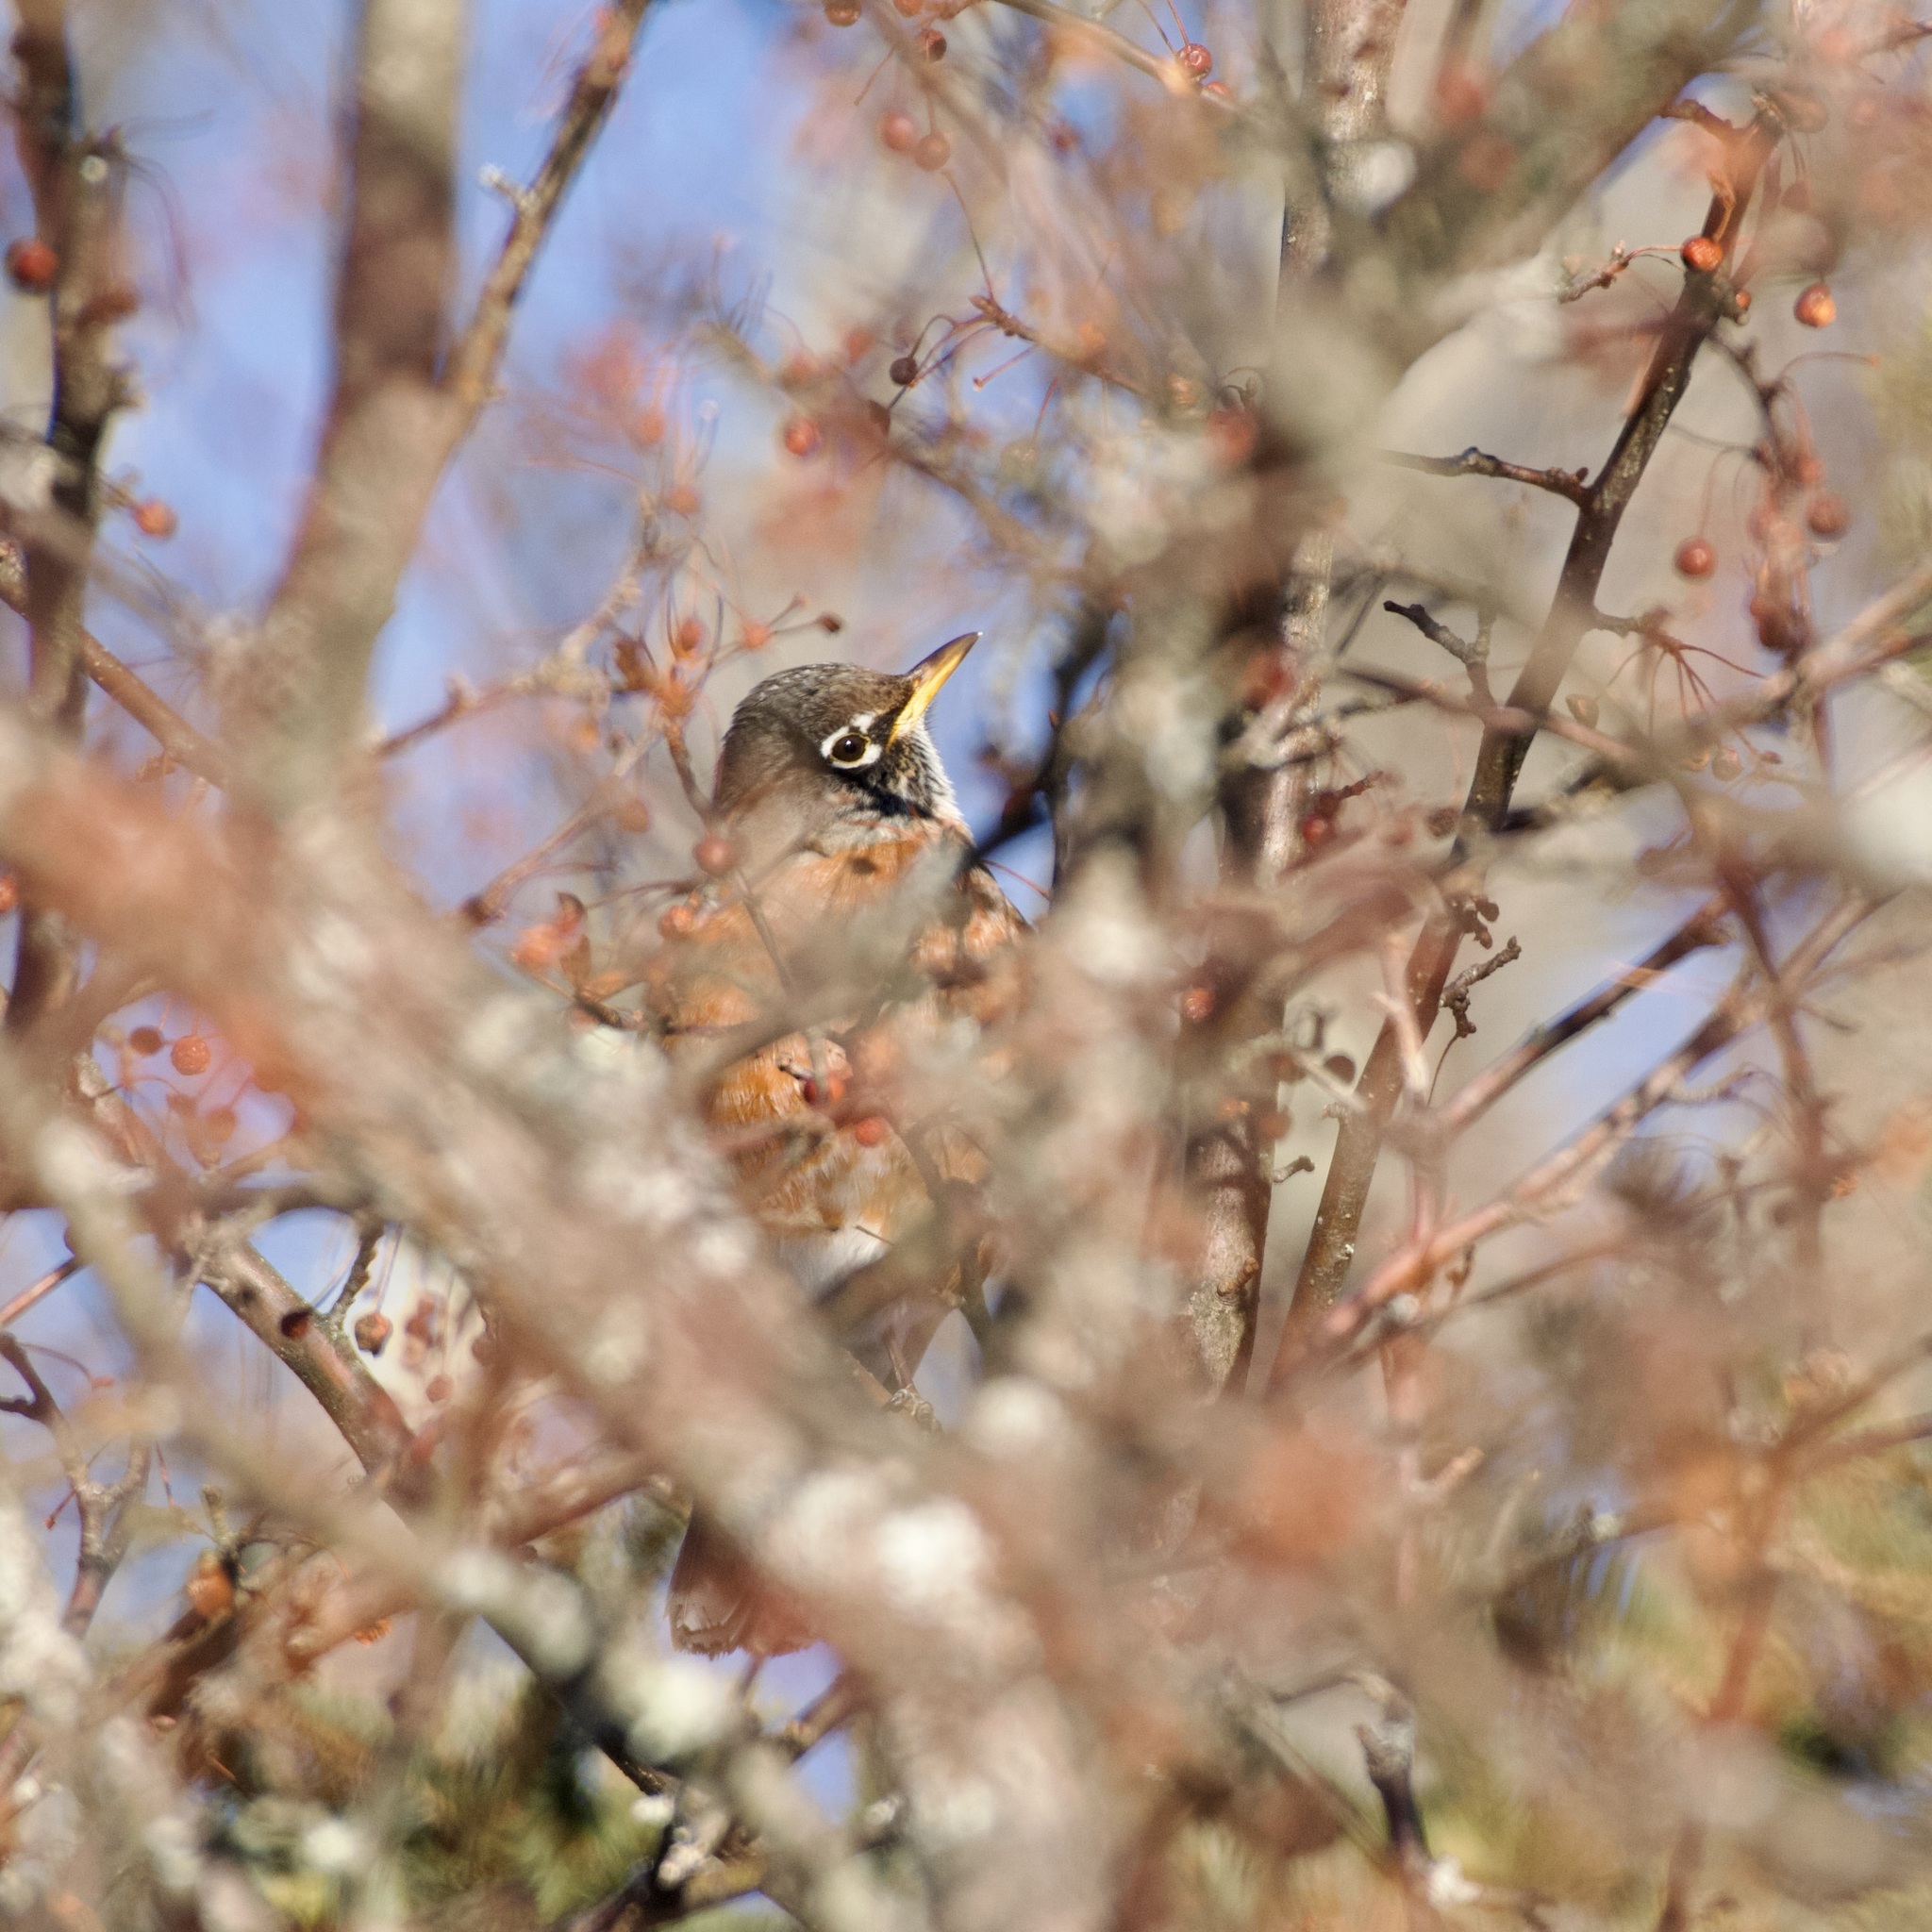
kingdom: Animalia
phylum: Chordata
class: Aves
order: Passeriformes
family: Turdidae
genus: Turdus
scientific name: Turdus migratorius
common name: American robin
